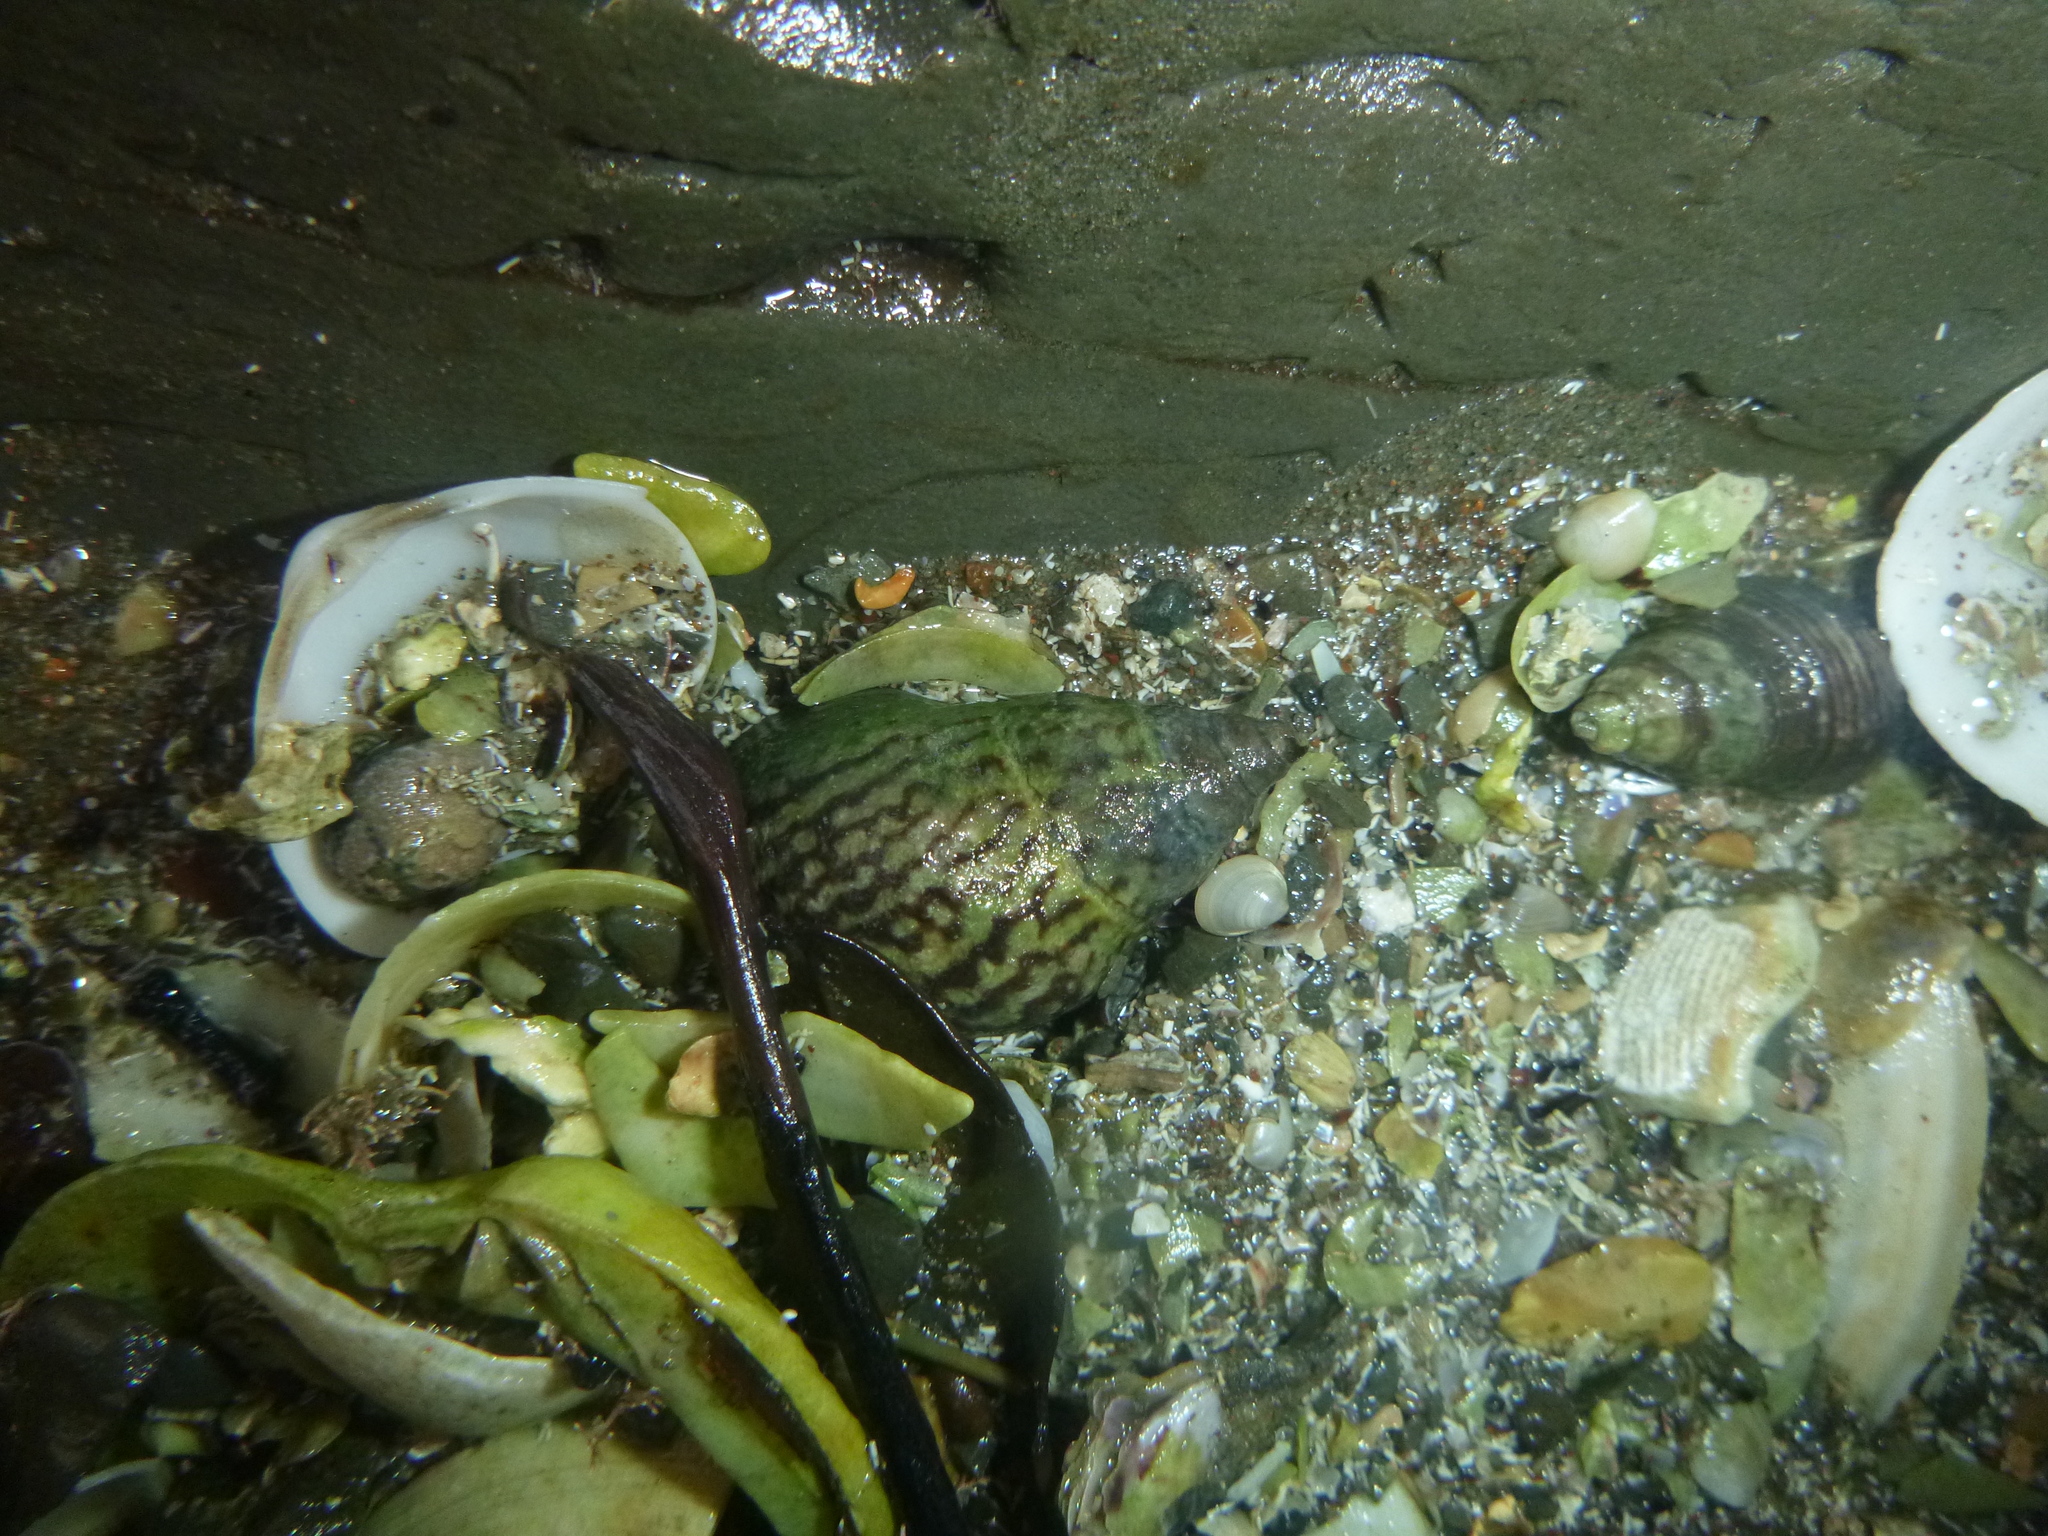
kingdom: Animalia
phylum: Mollusca
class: Gastropoda
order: Neogastropoda
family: Cominellidae
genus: Cominella
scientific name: Cominella maculosa
